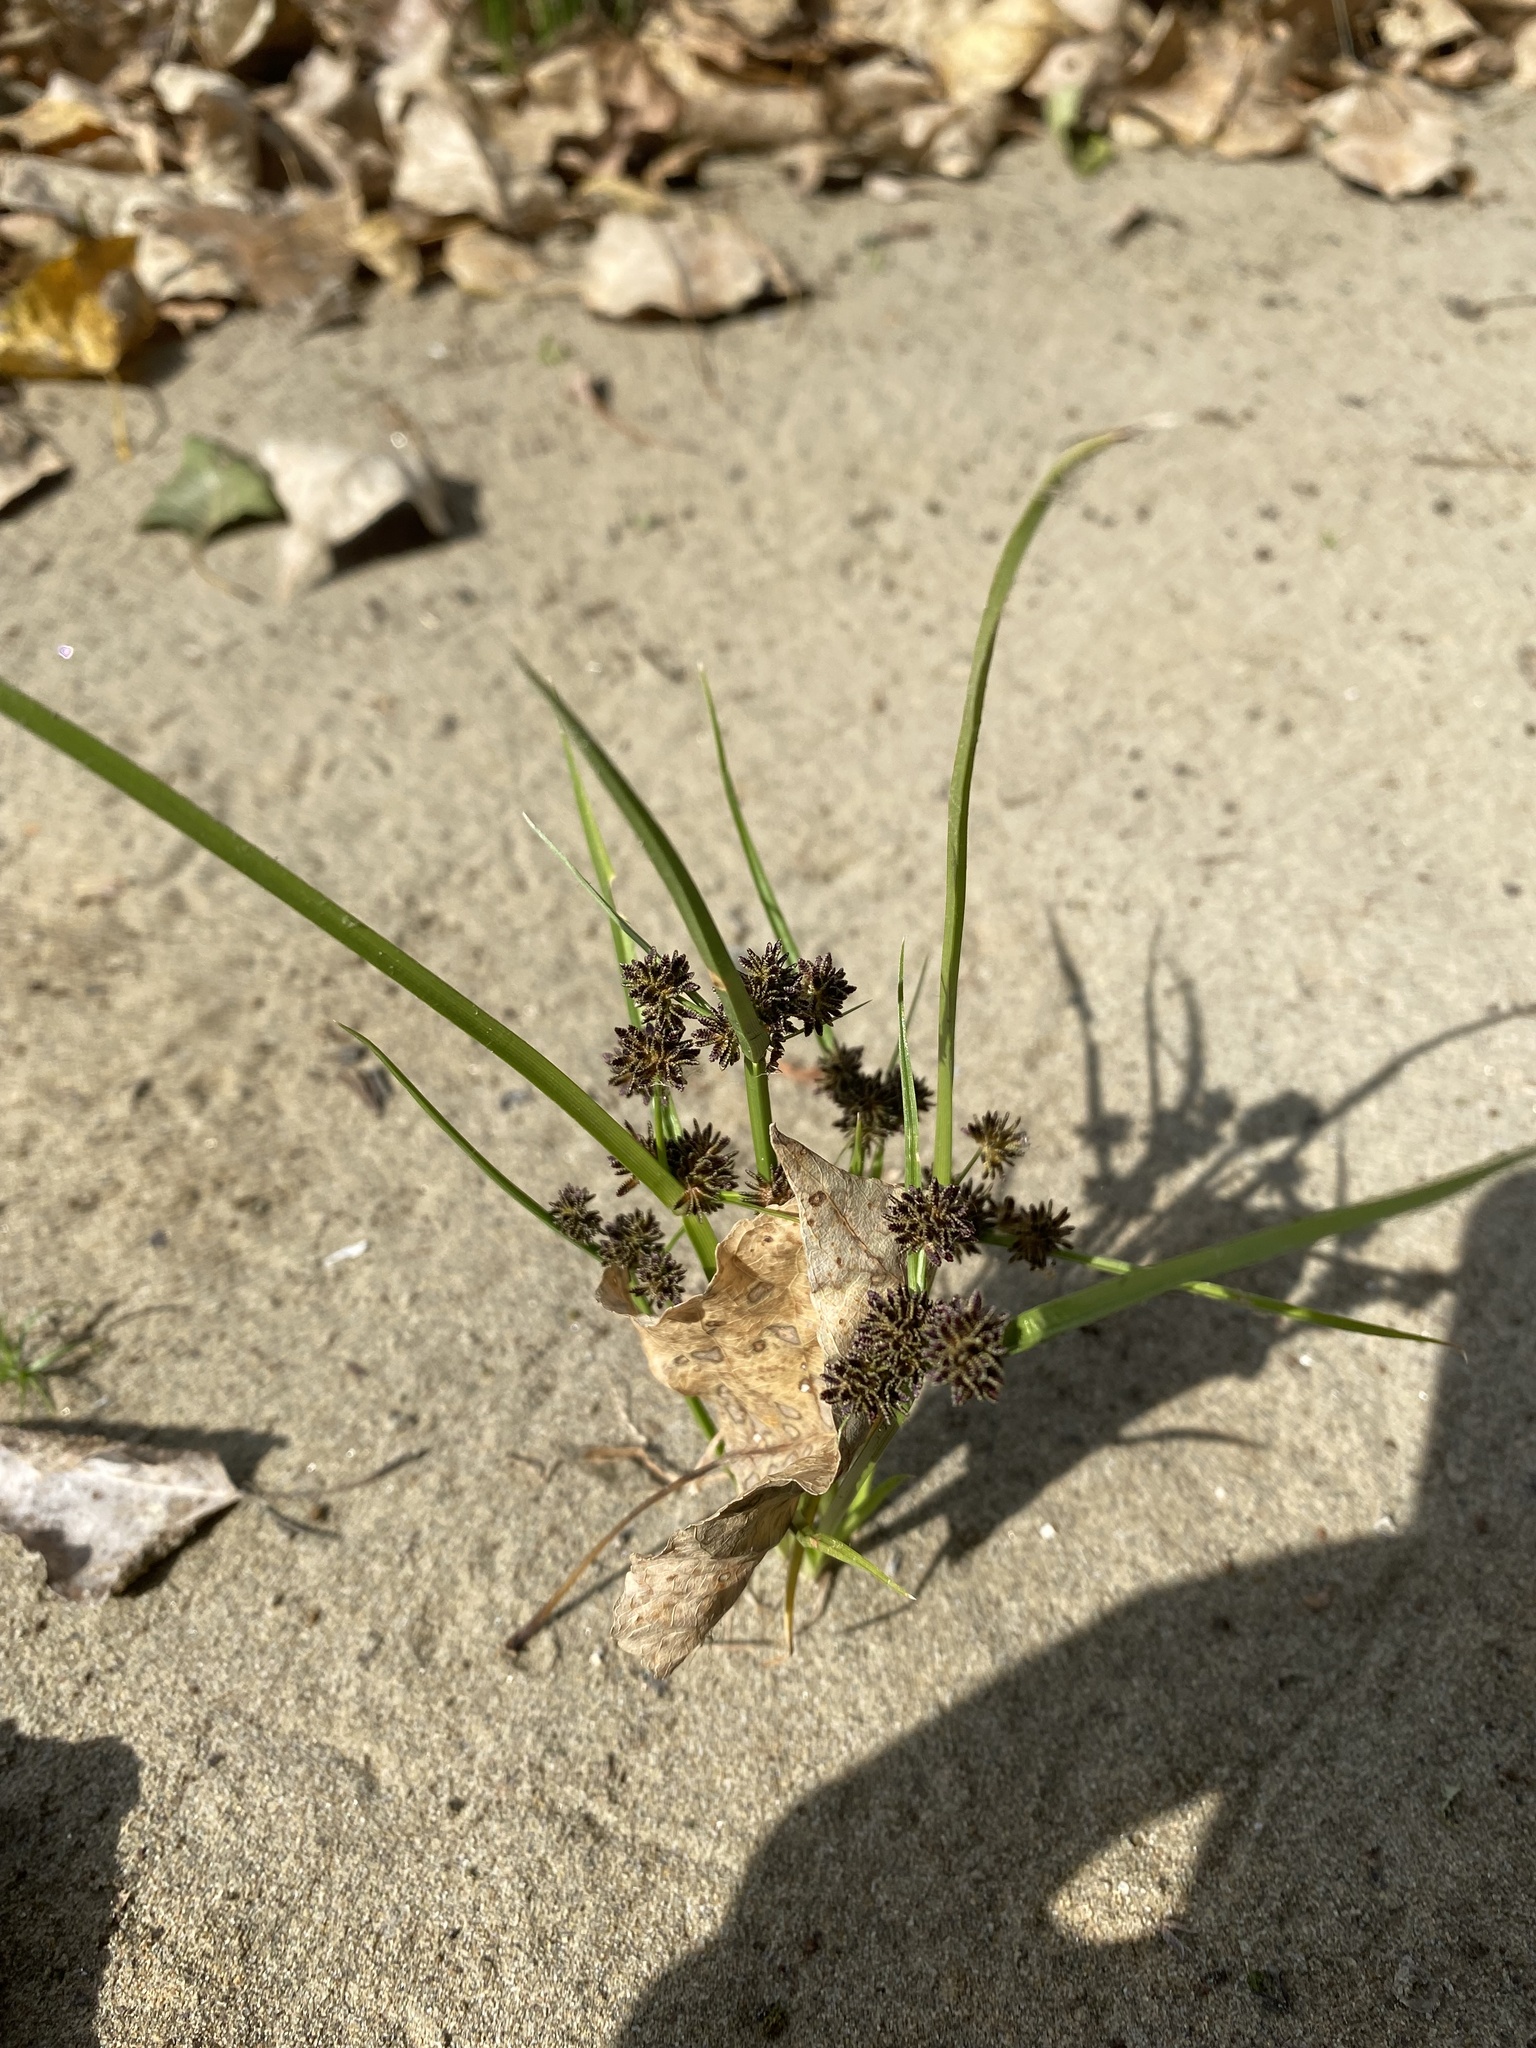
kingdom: Plantae
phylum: Tracheophyta
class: Liliopsida
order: Poales
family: Cyperaceae
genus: Cyperus
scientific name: Cyperus fuscus
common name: Brown galingale
